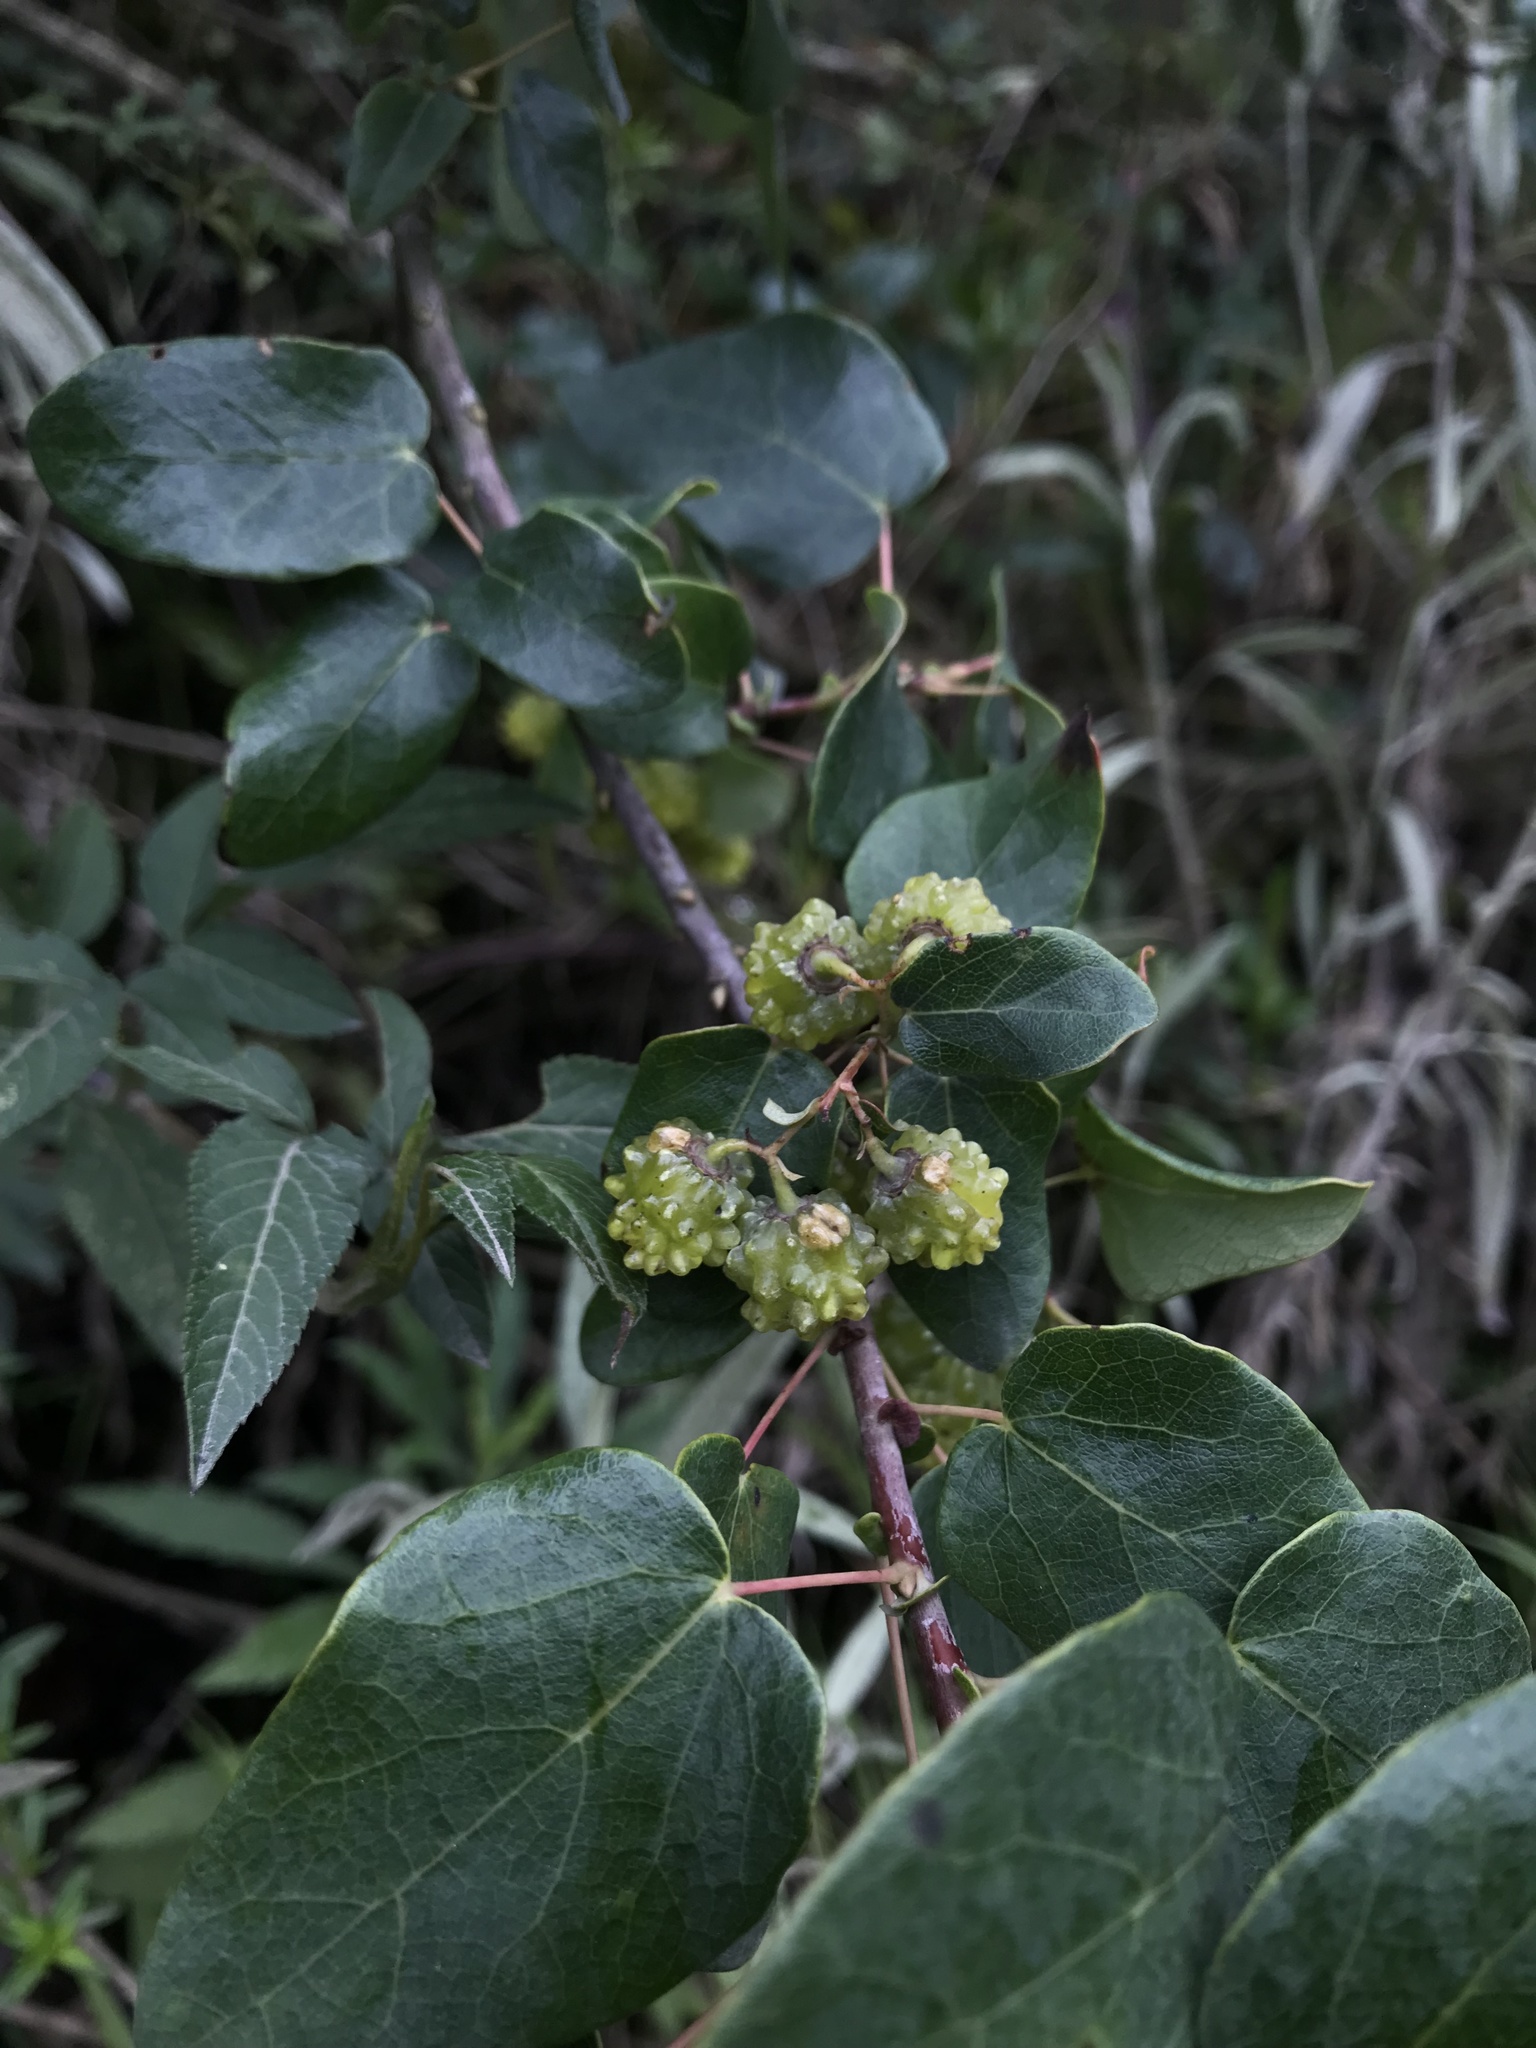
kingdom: Plantae
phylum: Tracheophyta
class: Magnoliopsida
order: Oxalidales
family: Elaeocarpaceae
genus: Vallea
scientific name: Vallea stipularis
